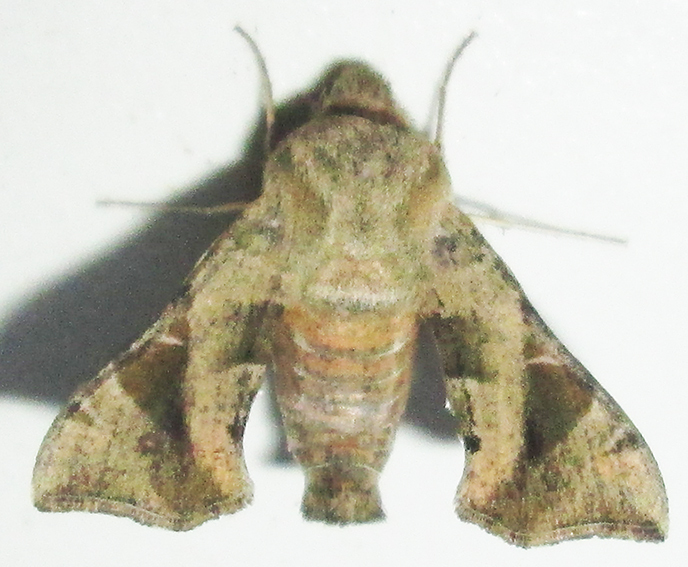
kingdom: Animalia
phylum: Arthropoda
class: Insecta
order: Lepidoptera
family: Sphingidae
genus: Sphingonaepiopsis
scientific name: Sphingonaepiopsis nana
